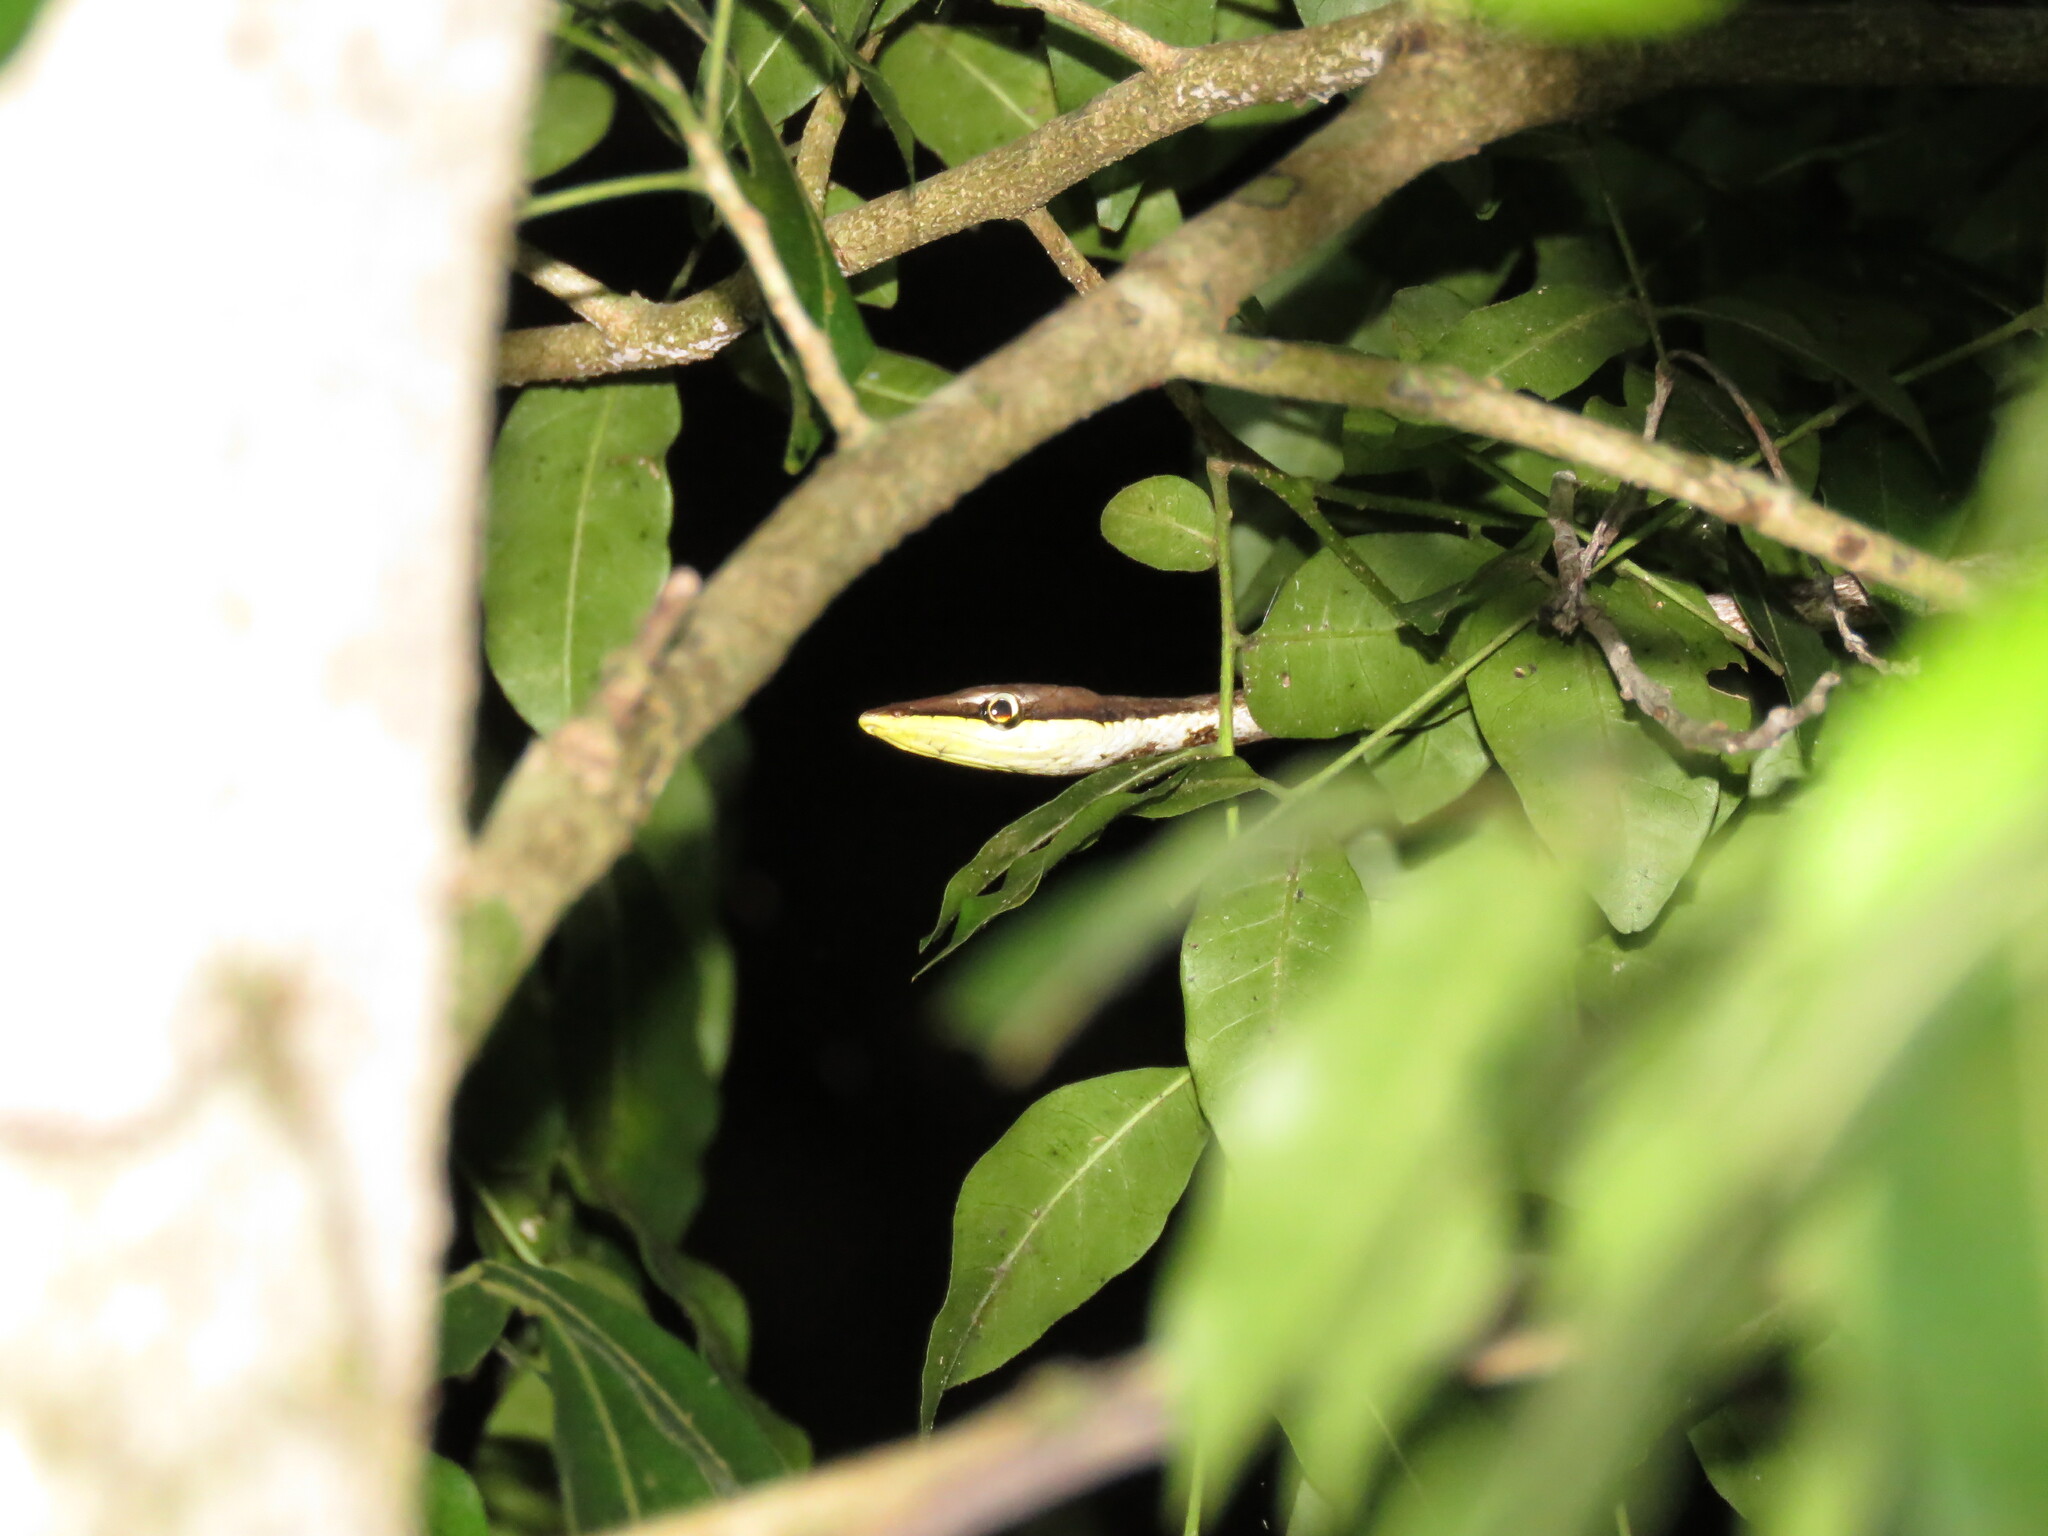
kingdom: Animalia
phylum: Chordata
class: Squamata
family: Colubridae
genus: Oxybelis
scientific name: Oxybelis potosiensis
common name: Gulf coast vine snake
